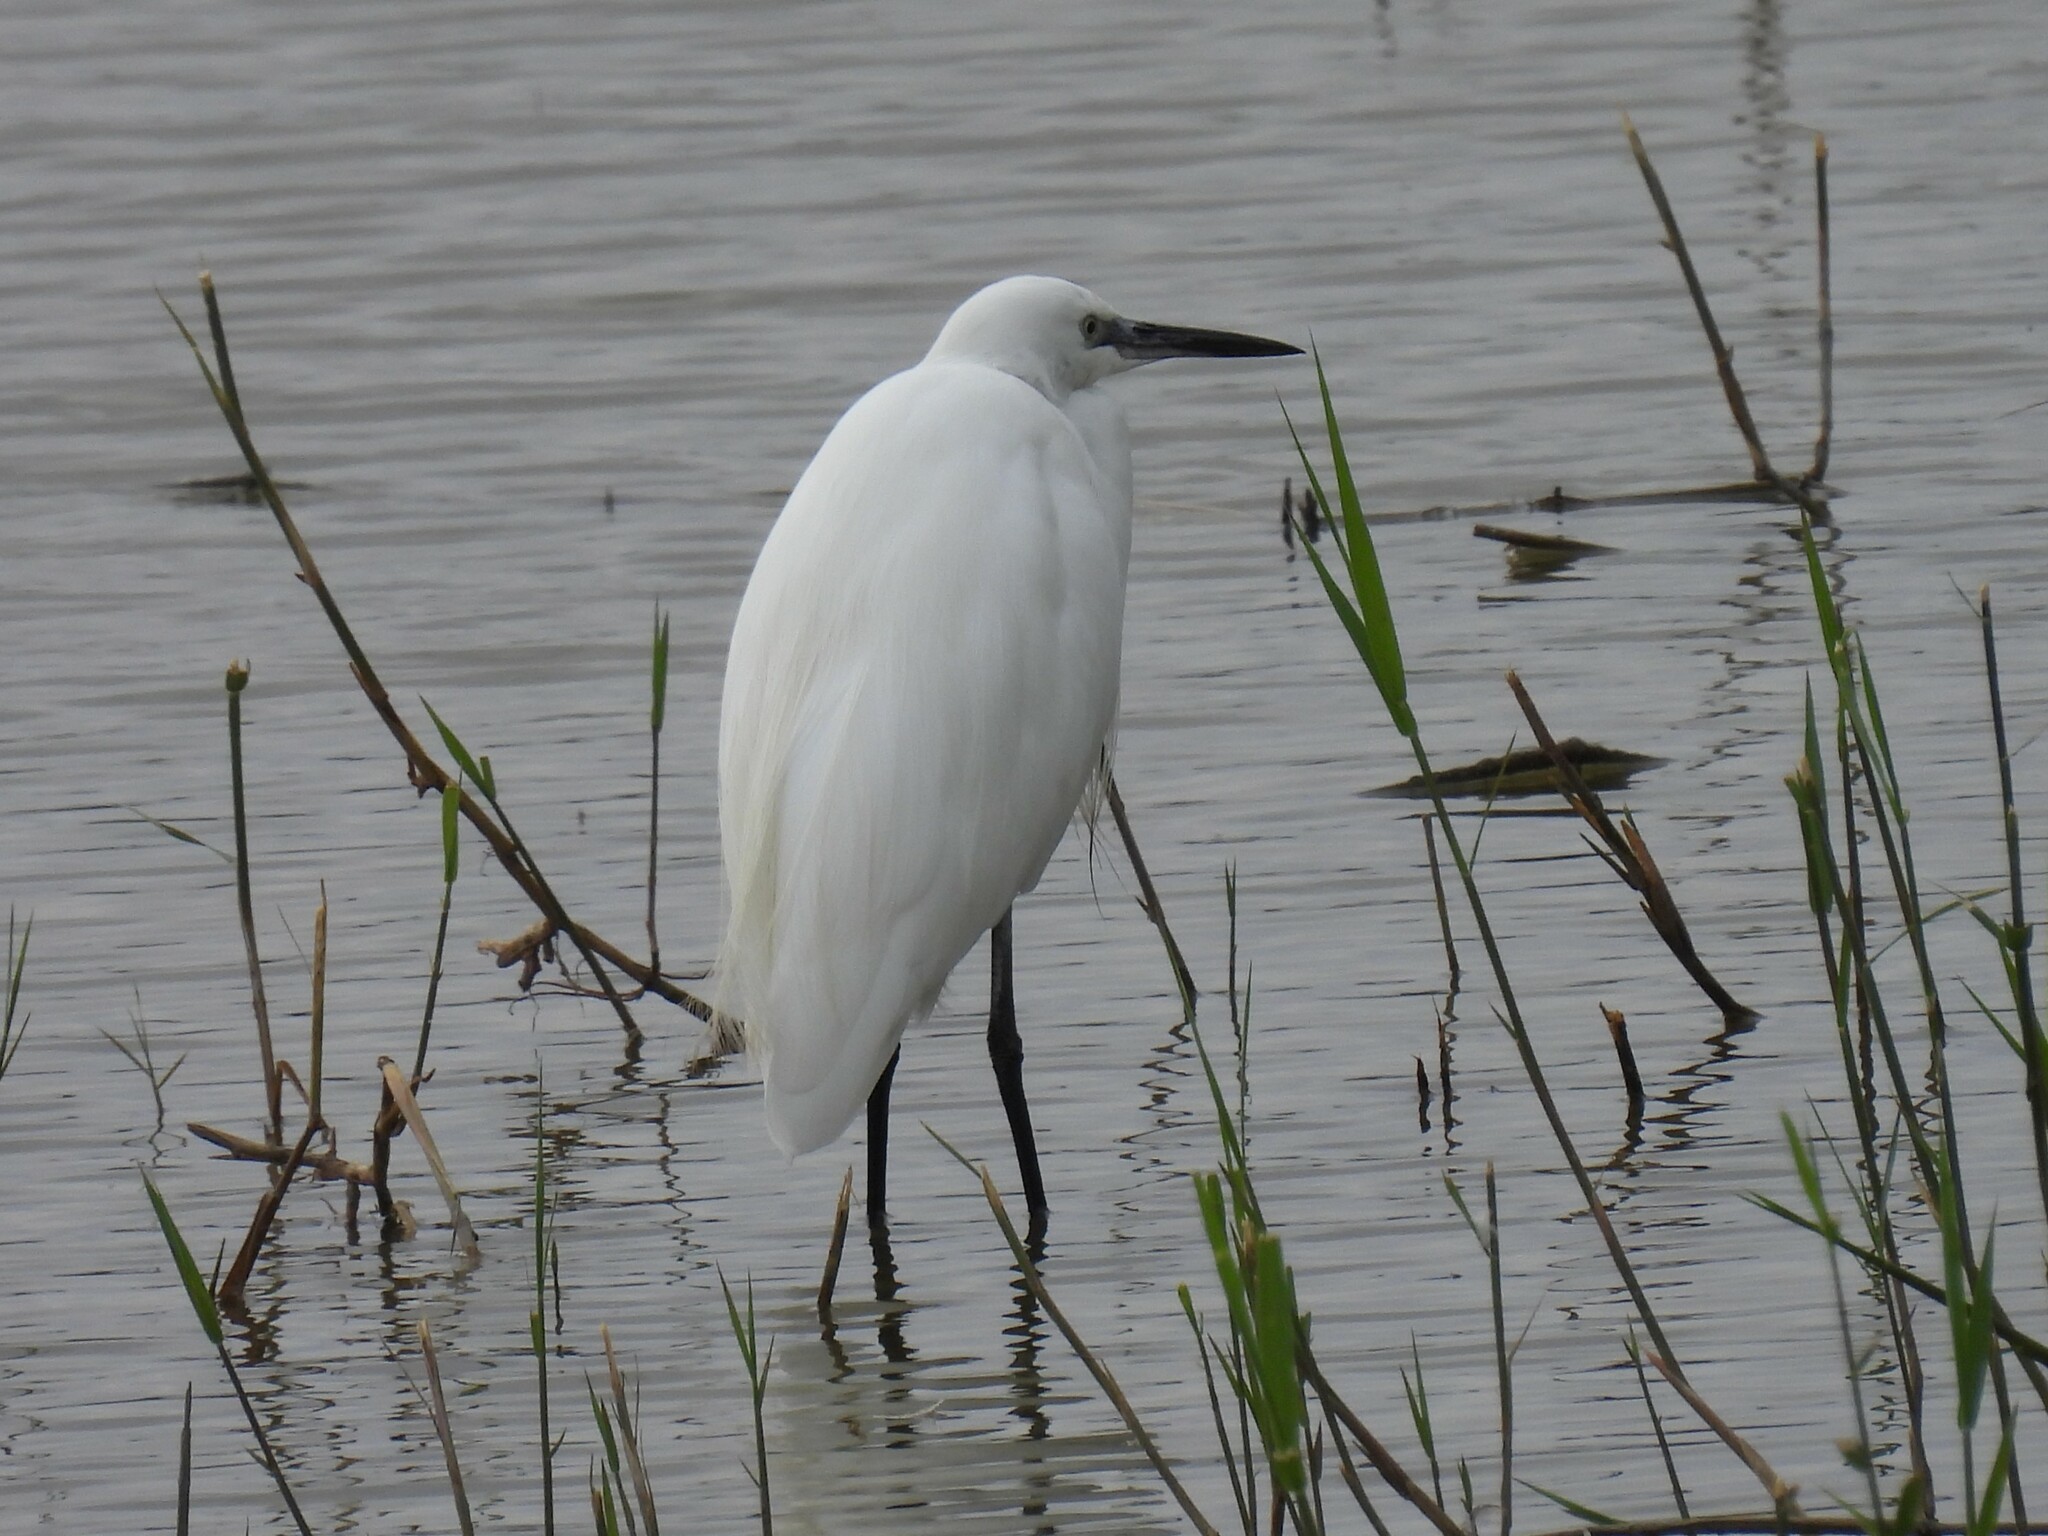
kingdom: Animalia
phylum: Chordata
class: Aves
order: Pelecaniformes
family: Ardeidae
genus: Egretta
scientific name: Egretta garzetta
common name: Little egret
